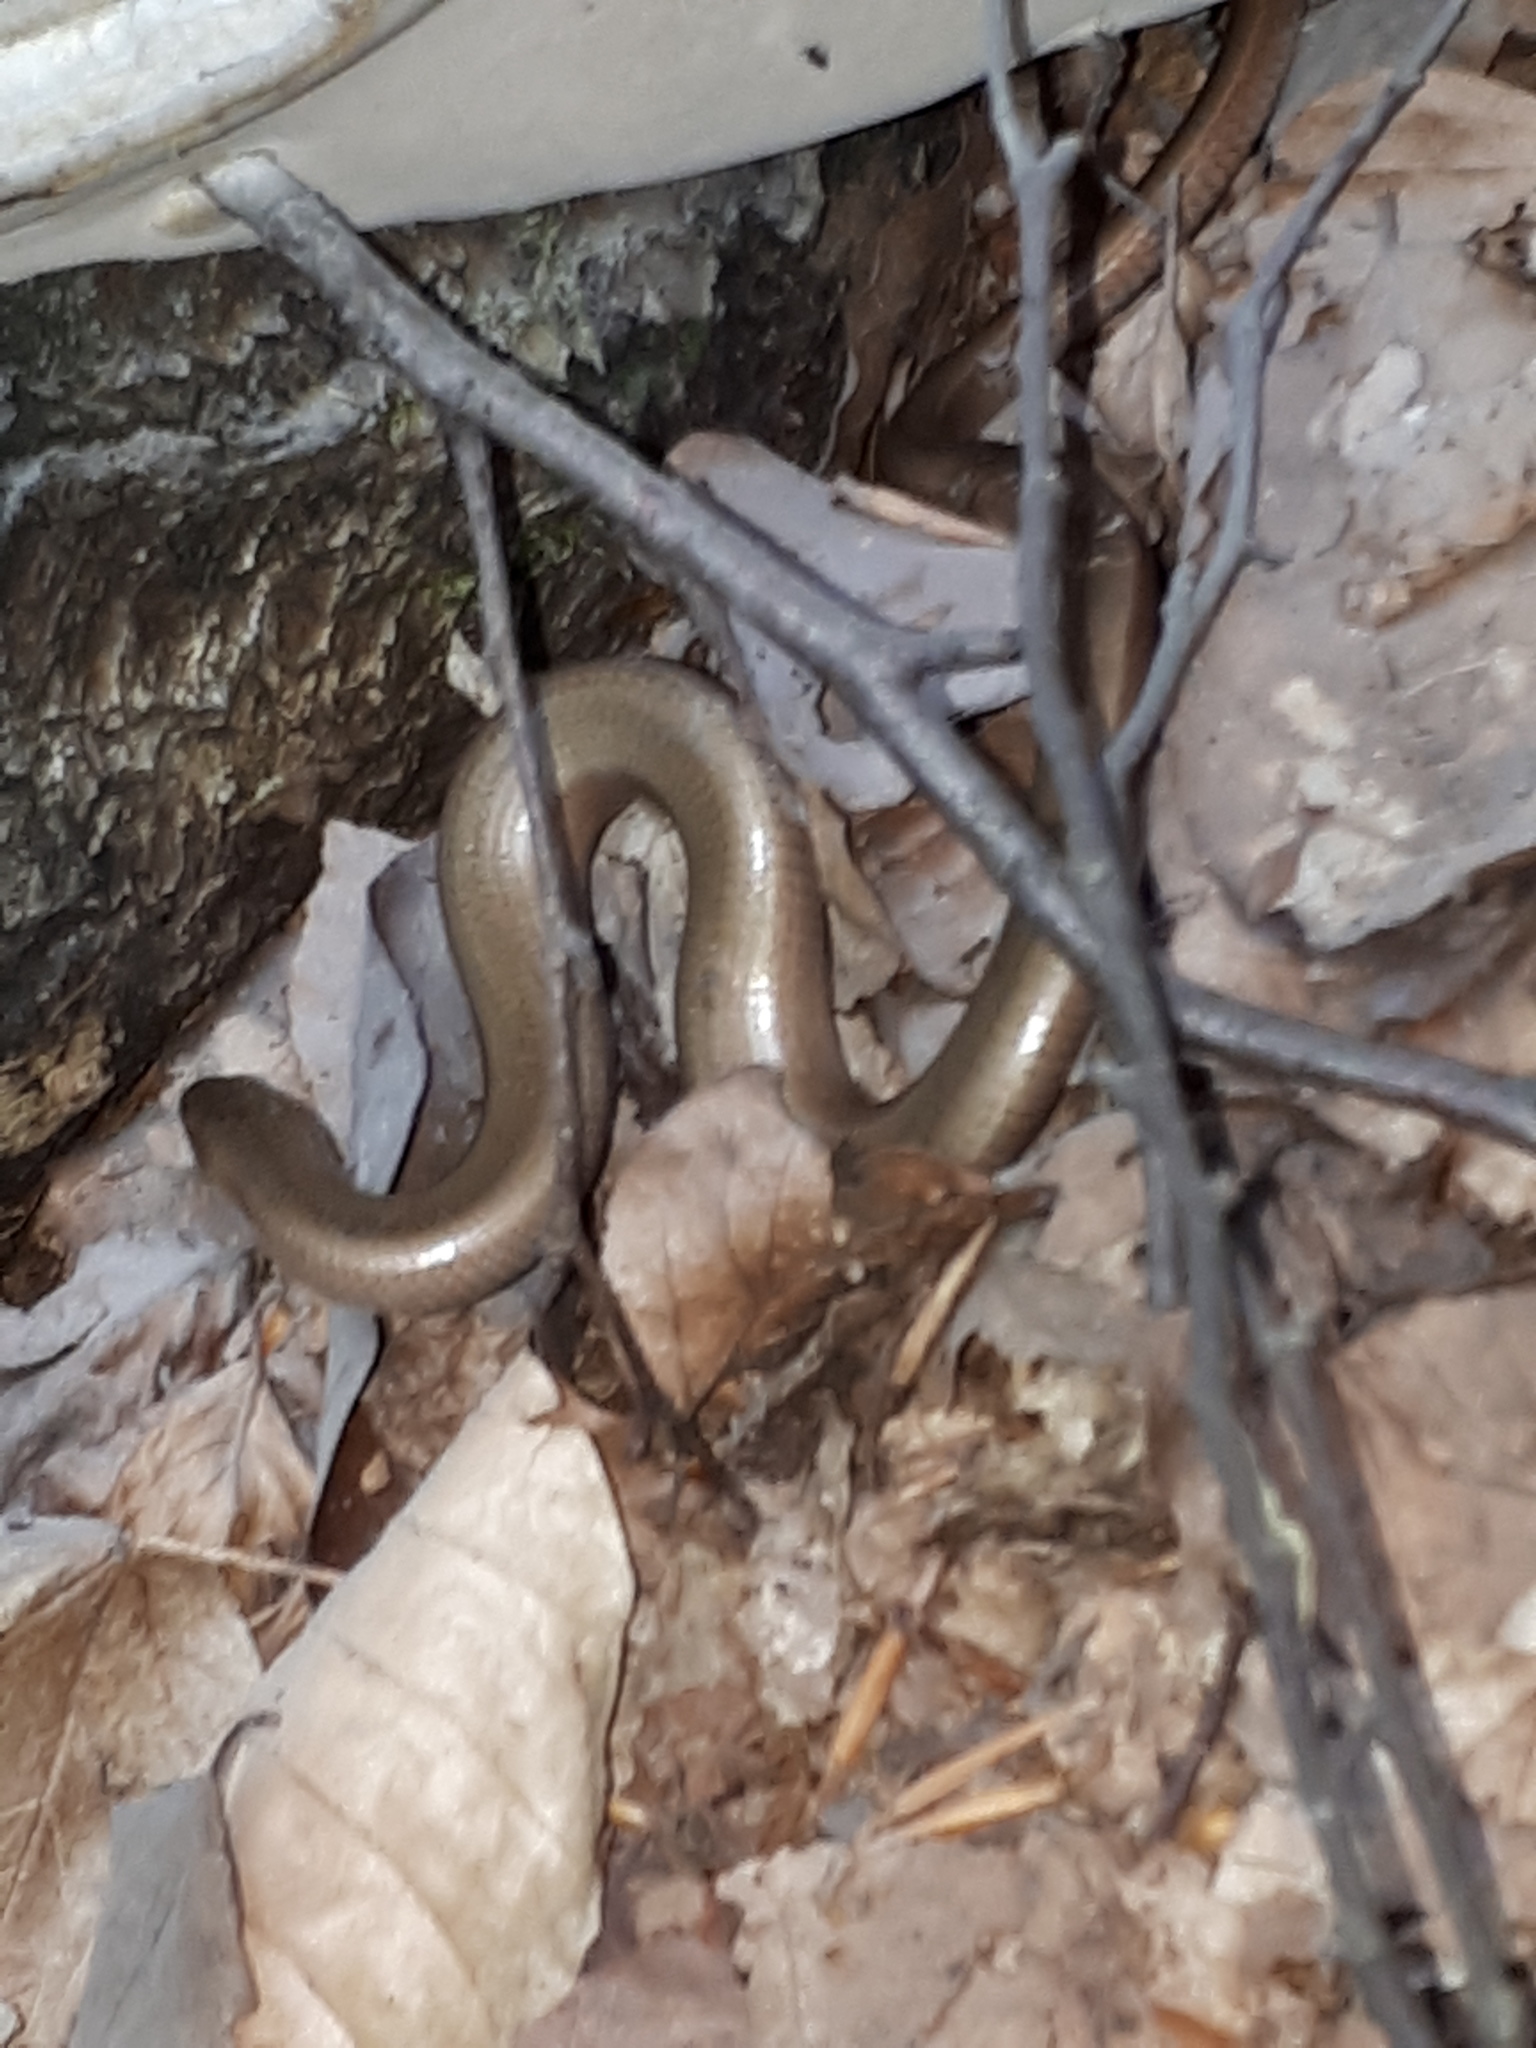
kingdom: Animalia
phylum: Chordata
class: Squamata
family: Anguidae
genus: Anguis
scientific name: Anguis fragilis
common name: Slow worm
